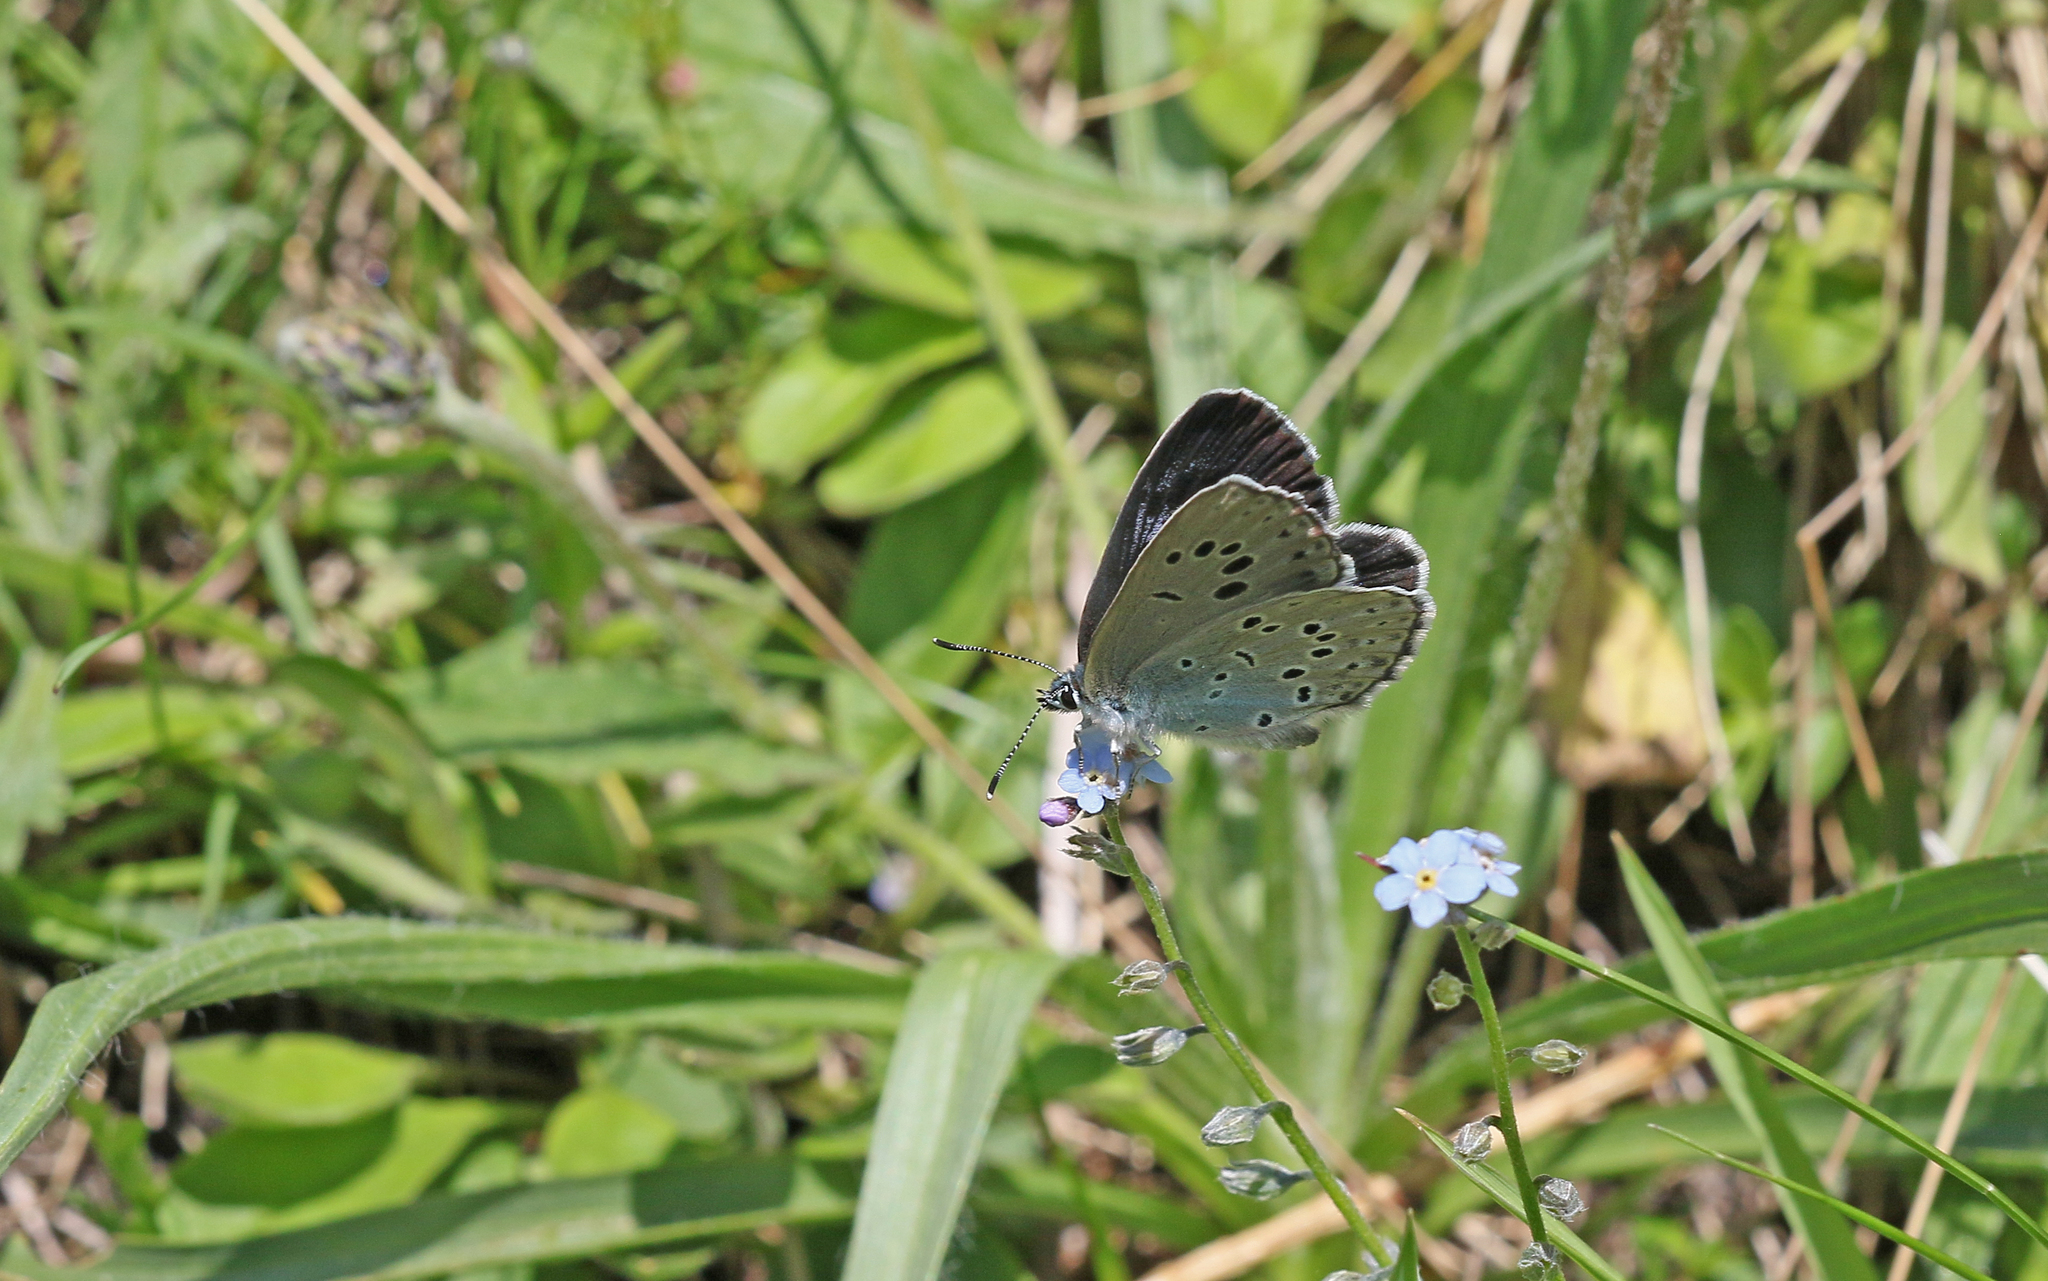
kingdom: Animalia
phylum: Arthropoda
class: Insecta
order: Lepidoptera
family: Lycaenidae
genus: Maculinea
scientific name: Maculinea arion
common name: Large blue
